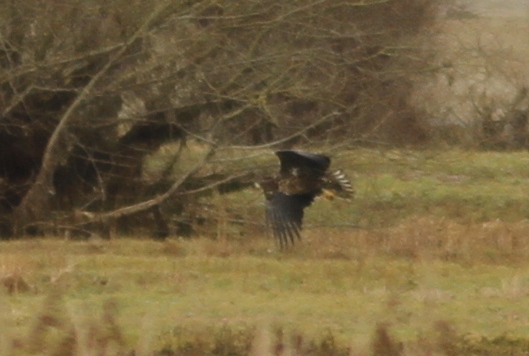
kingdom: Animalia
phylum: Chordata
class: Aves
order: Accipitriformes
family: Accipitridae
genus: Haliaeetus
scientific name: Haliaeetus albicilla
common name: White-tailed eagle
